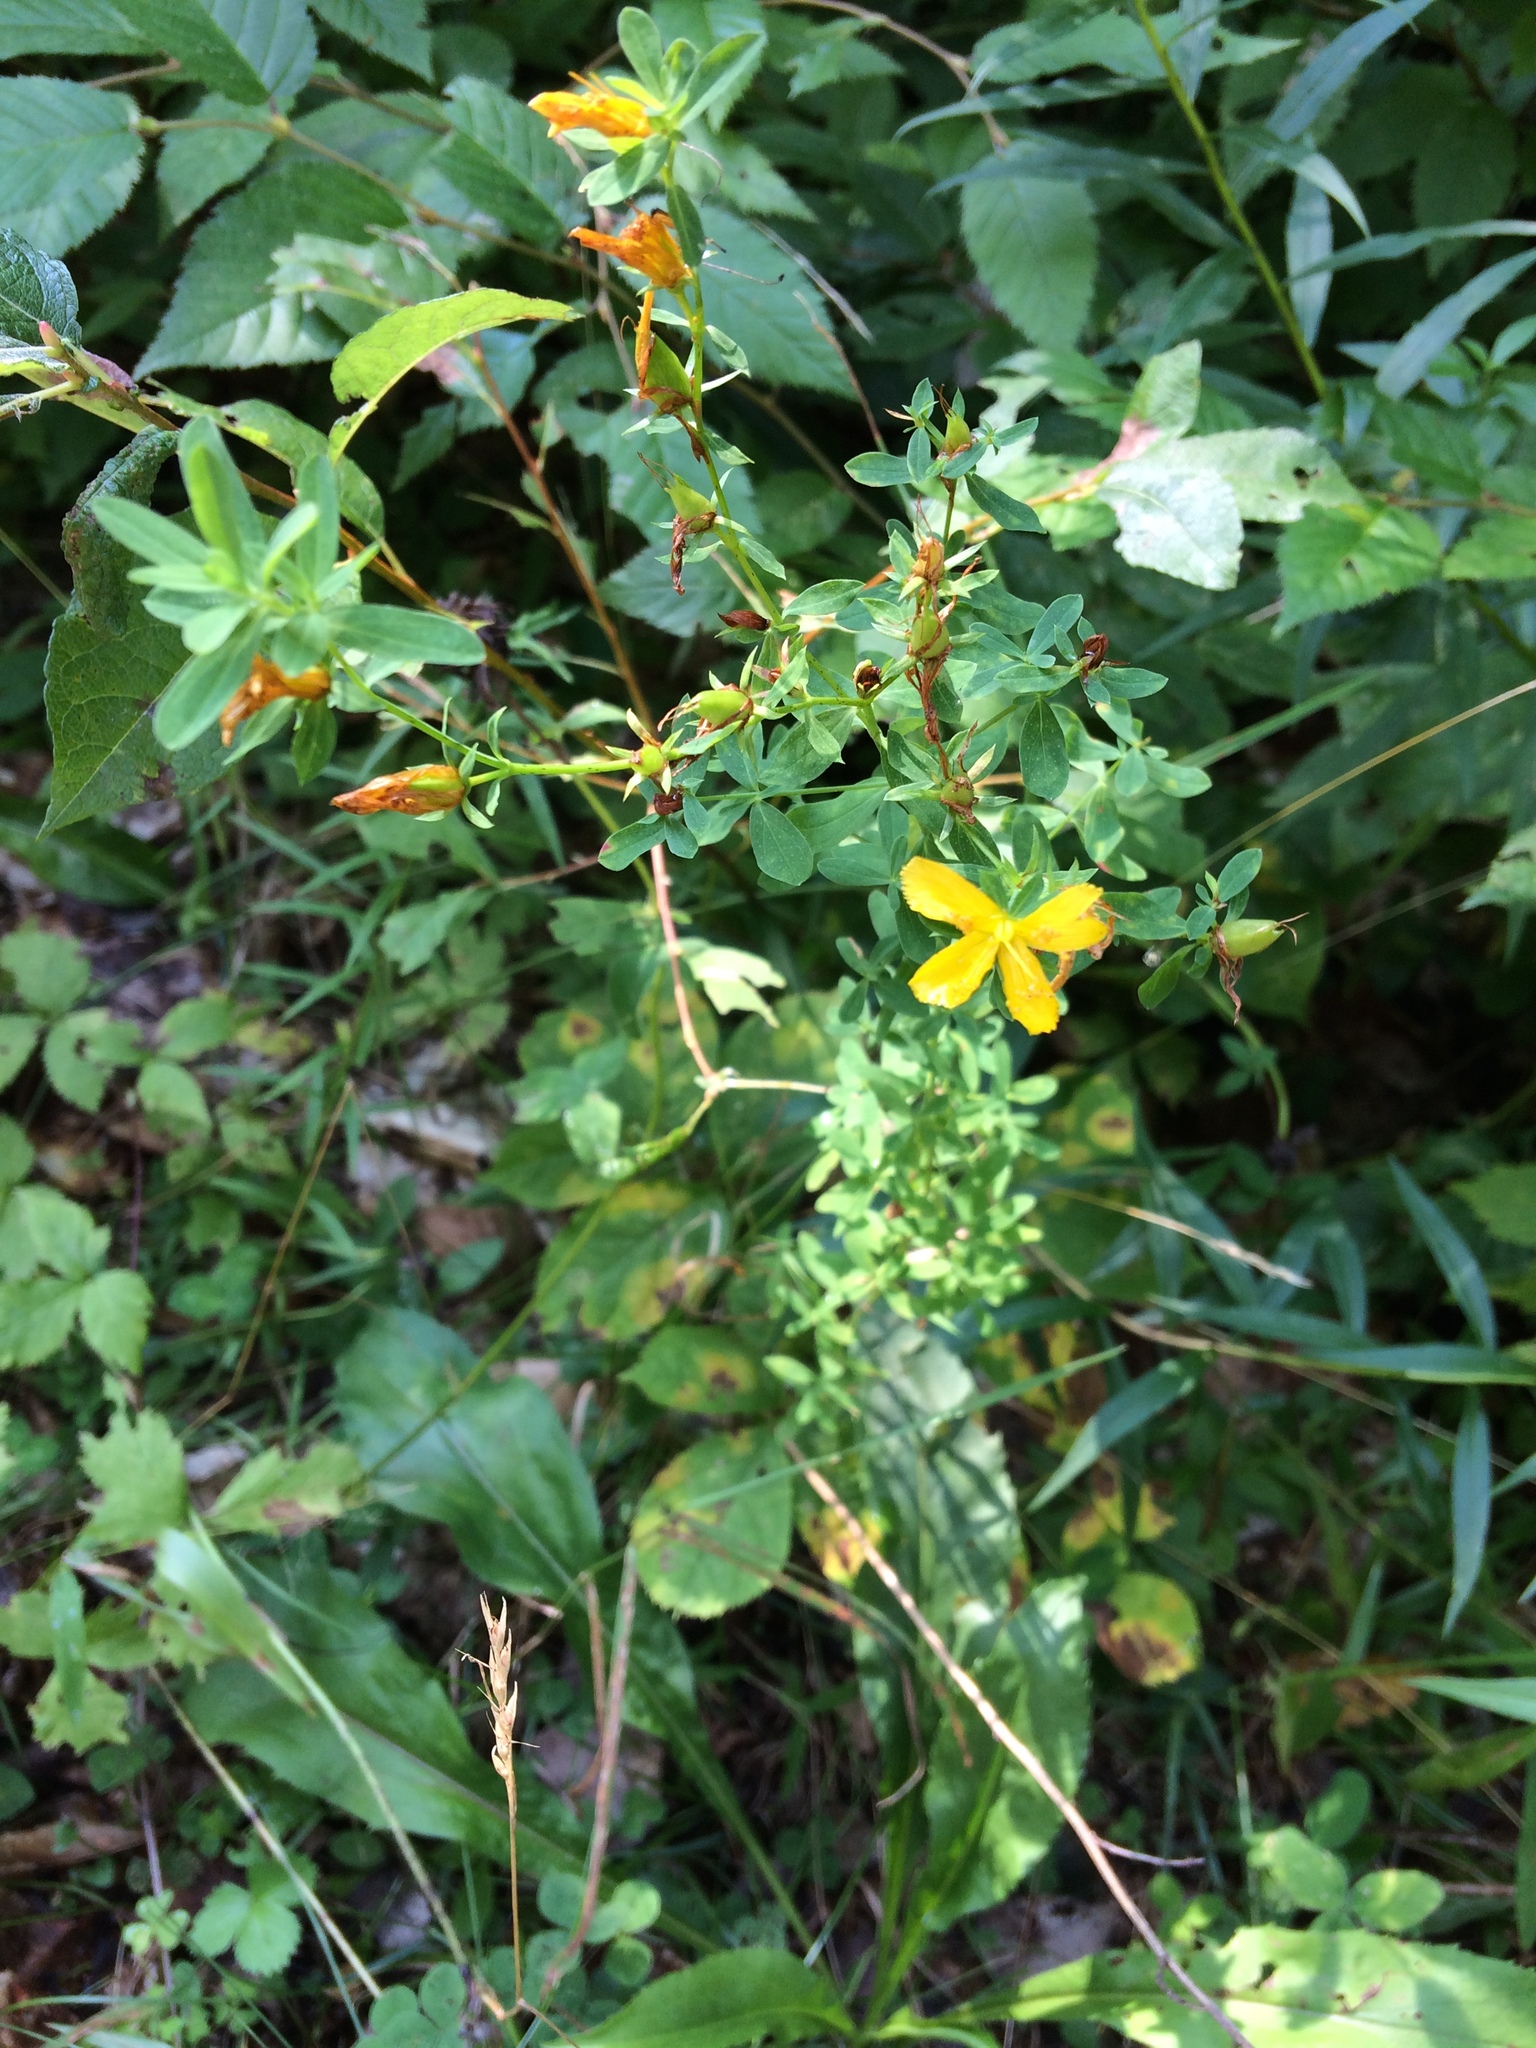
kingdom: Plantae
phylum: Tracheophyta
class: Magnoliopsida
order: Malpighiales
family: Hypericaceae
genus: Hypericum
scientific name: Hypericum perforatum
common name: Common st. johnswort
